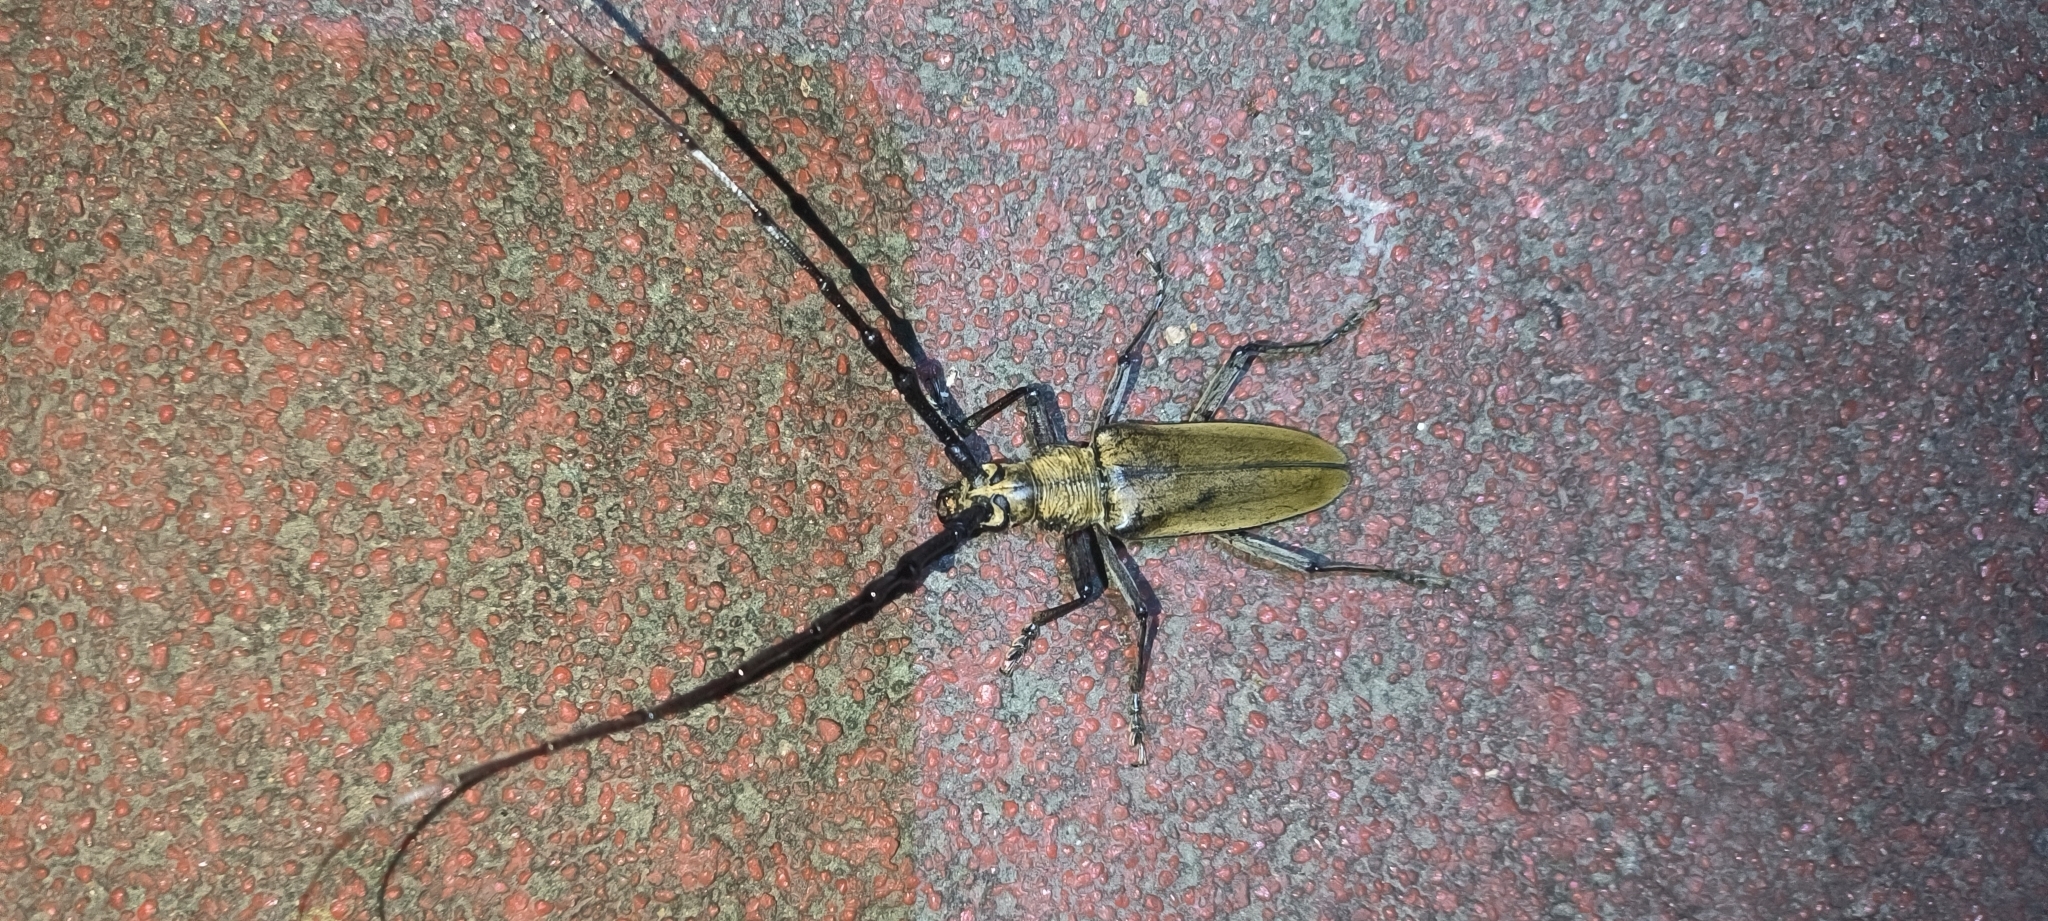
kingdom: Animalia
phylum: Arthropoda
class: Insecta
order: Coleoptera
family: Cerambycidae
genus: Neocerambyx
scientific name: Neocerambyx raddei
